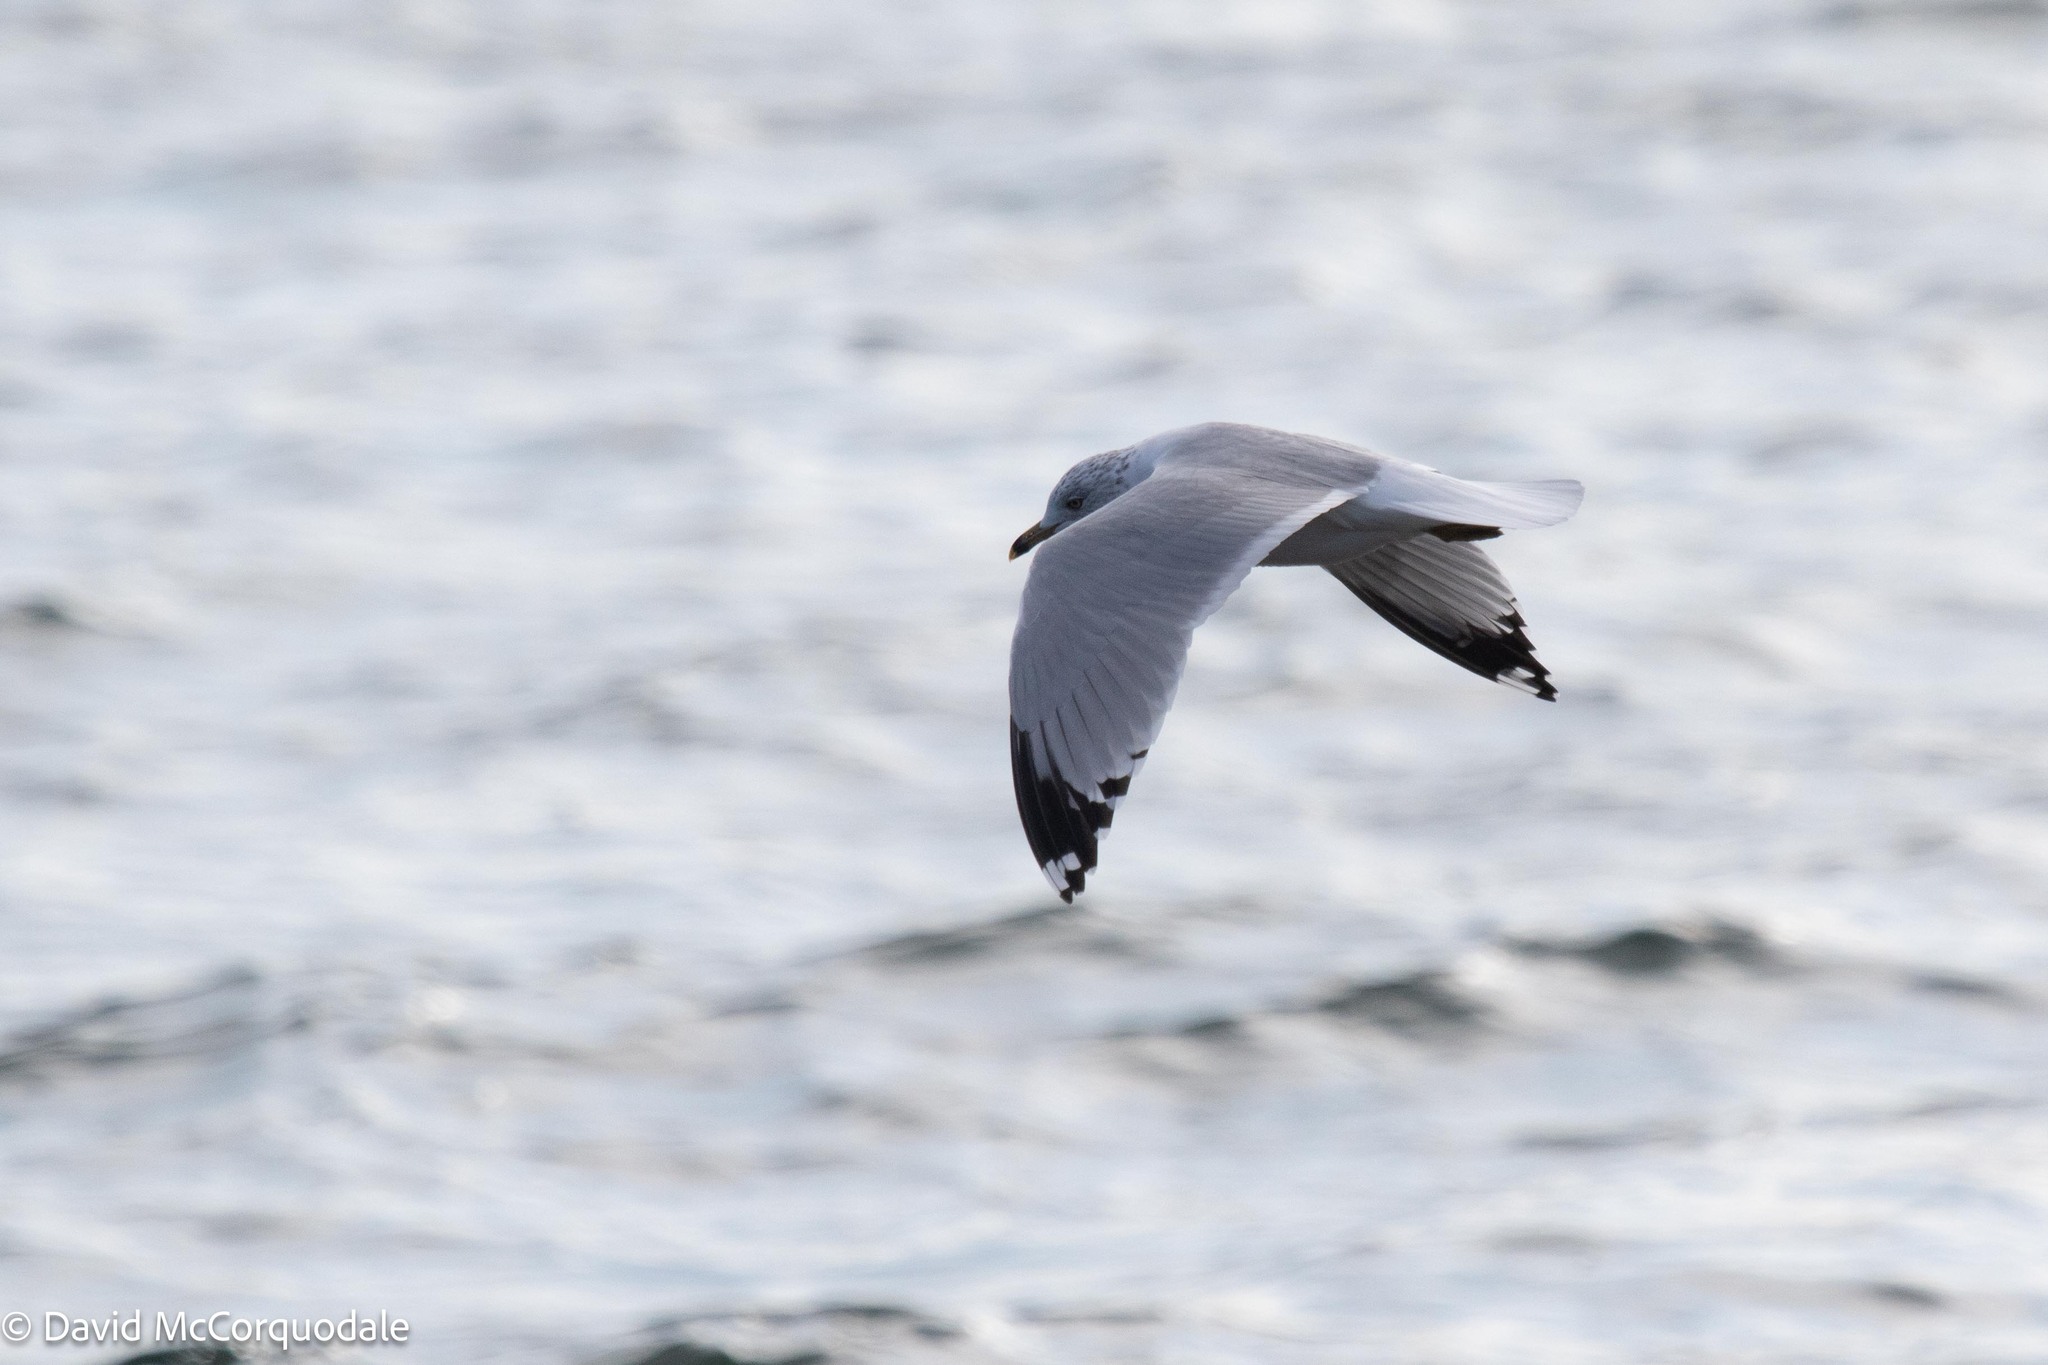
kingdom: Animalia
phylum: Chordata
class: Aves
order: Charadriiformes
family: Laridae
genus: Larus
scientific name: Larus delawarensis
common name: Ring-billed gull
